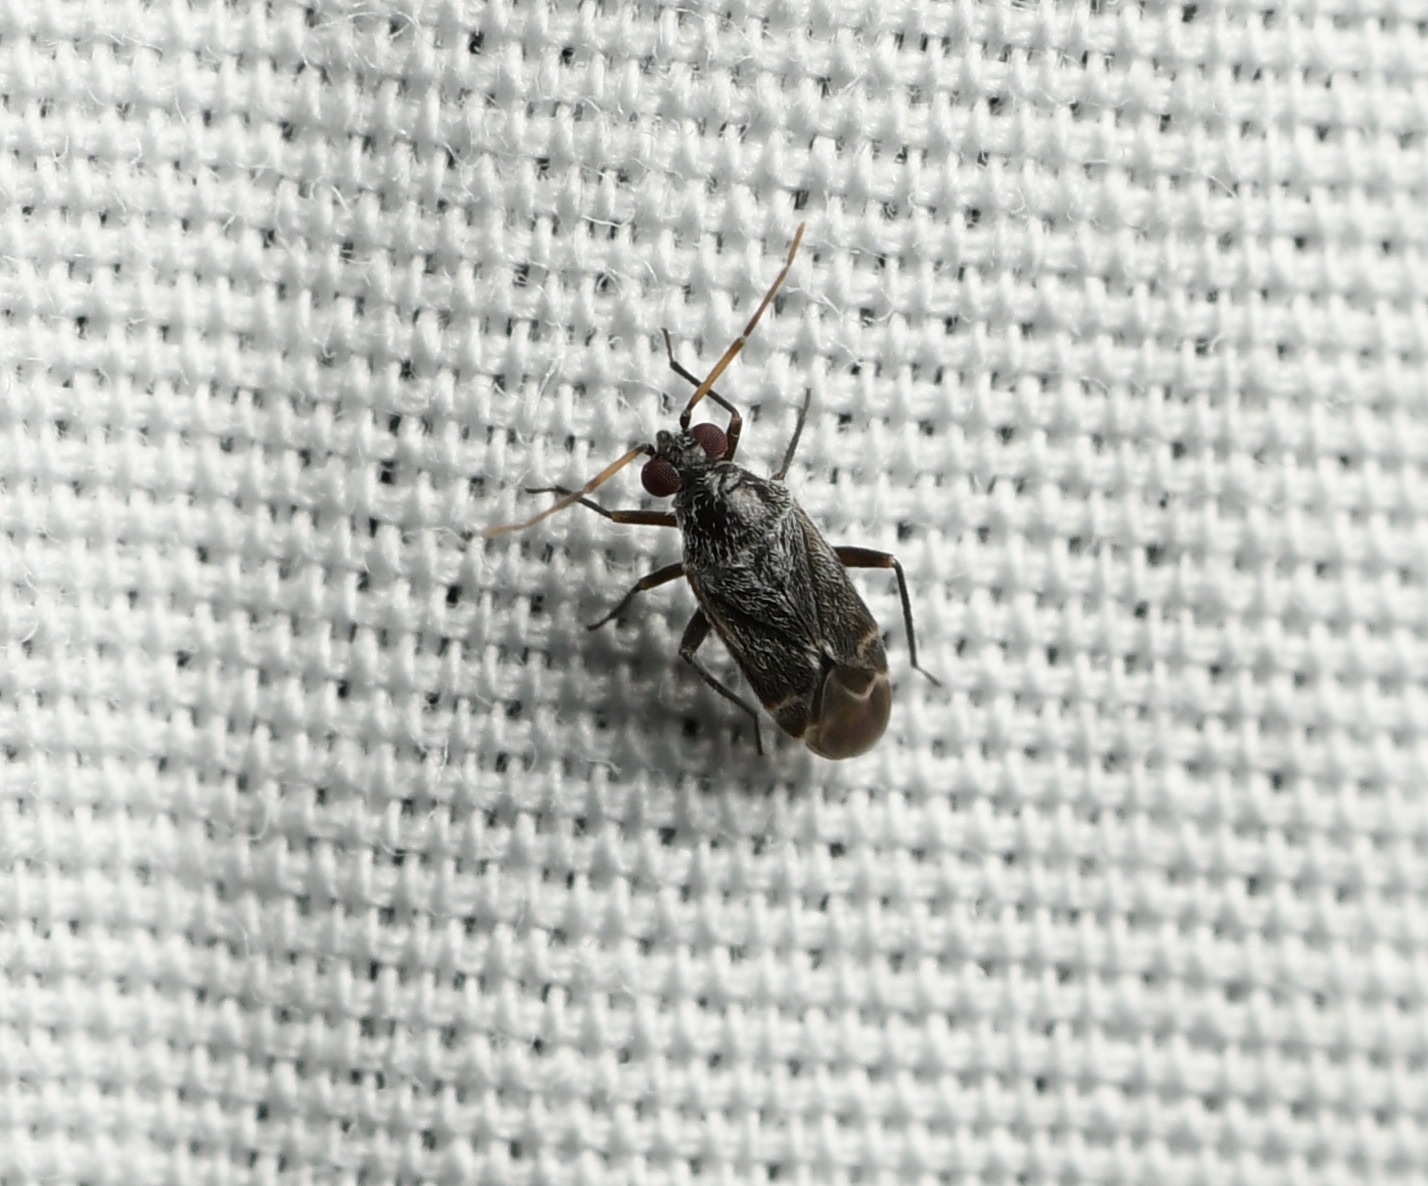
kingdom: Animalia
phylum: Arthropoda
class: Insecta
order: Hemiptera
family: Miridae
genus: Guentherocoris
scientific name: Guentherocoris atritibialis
